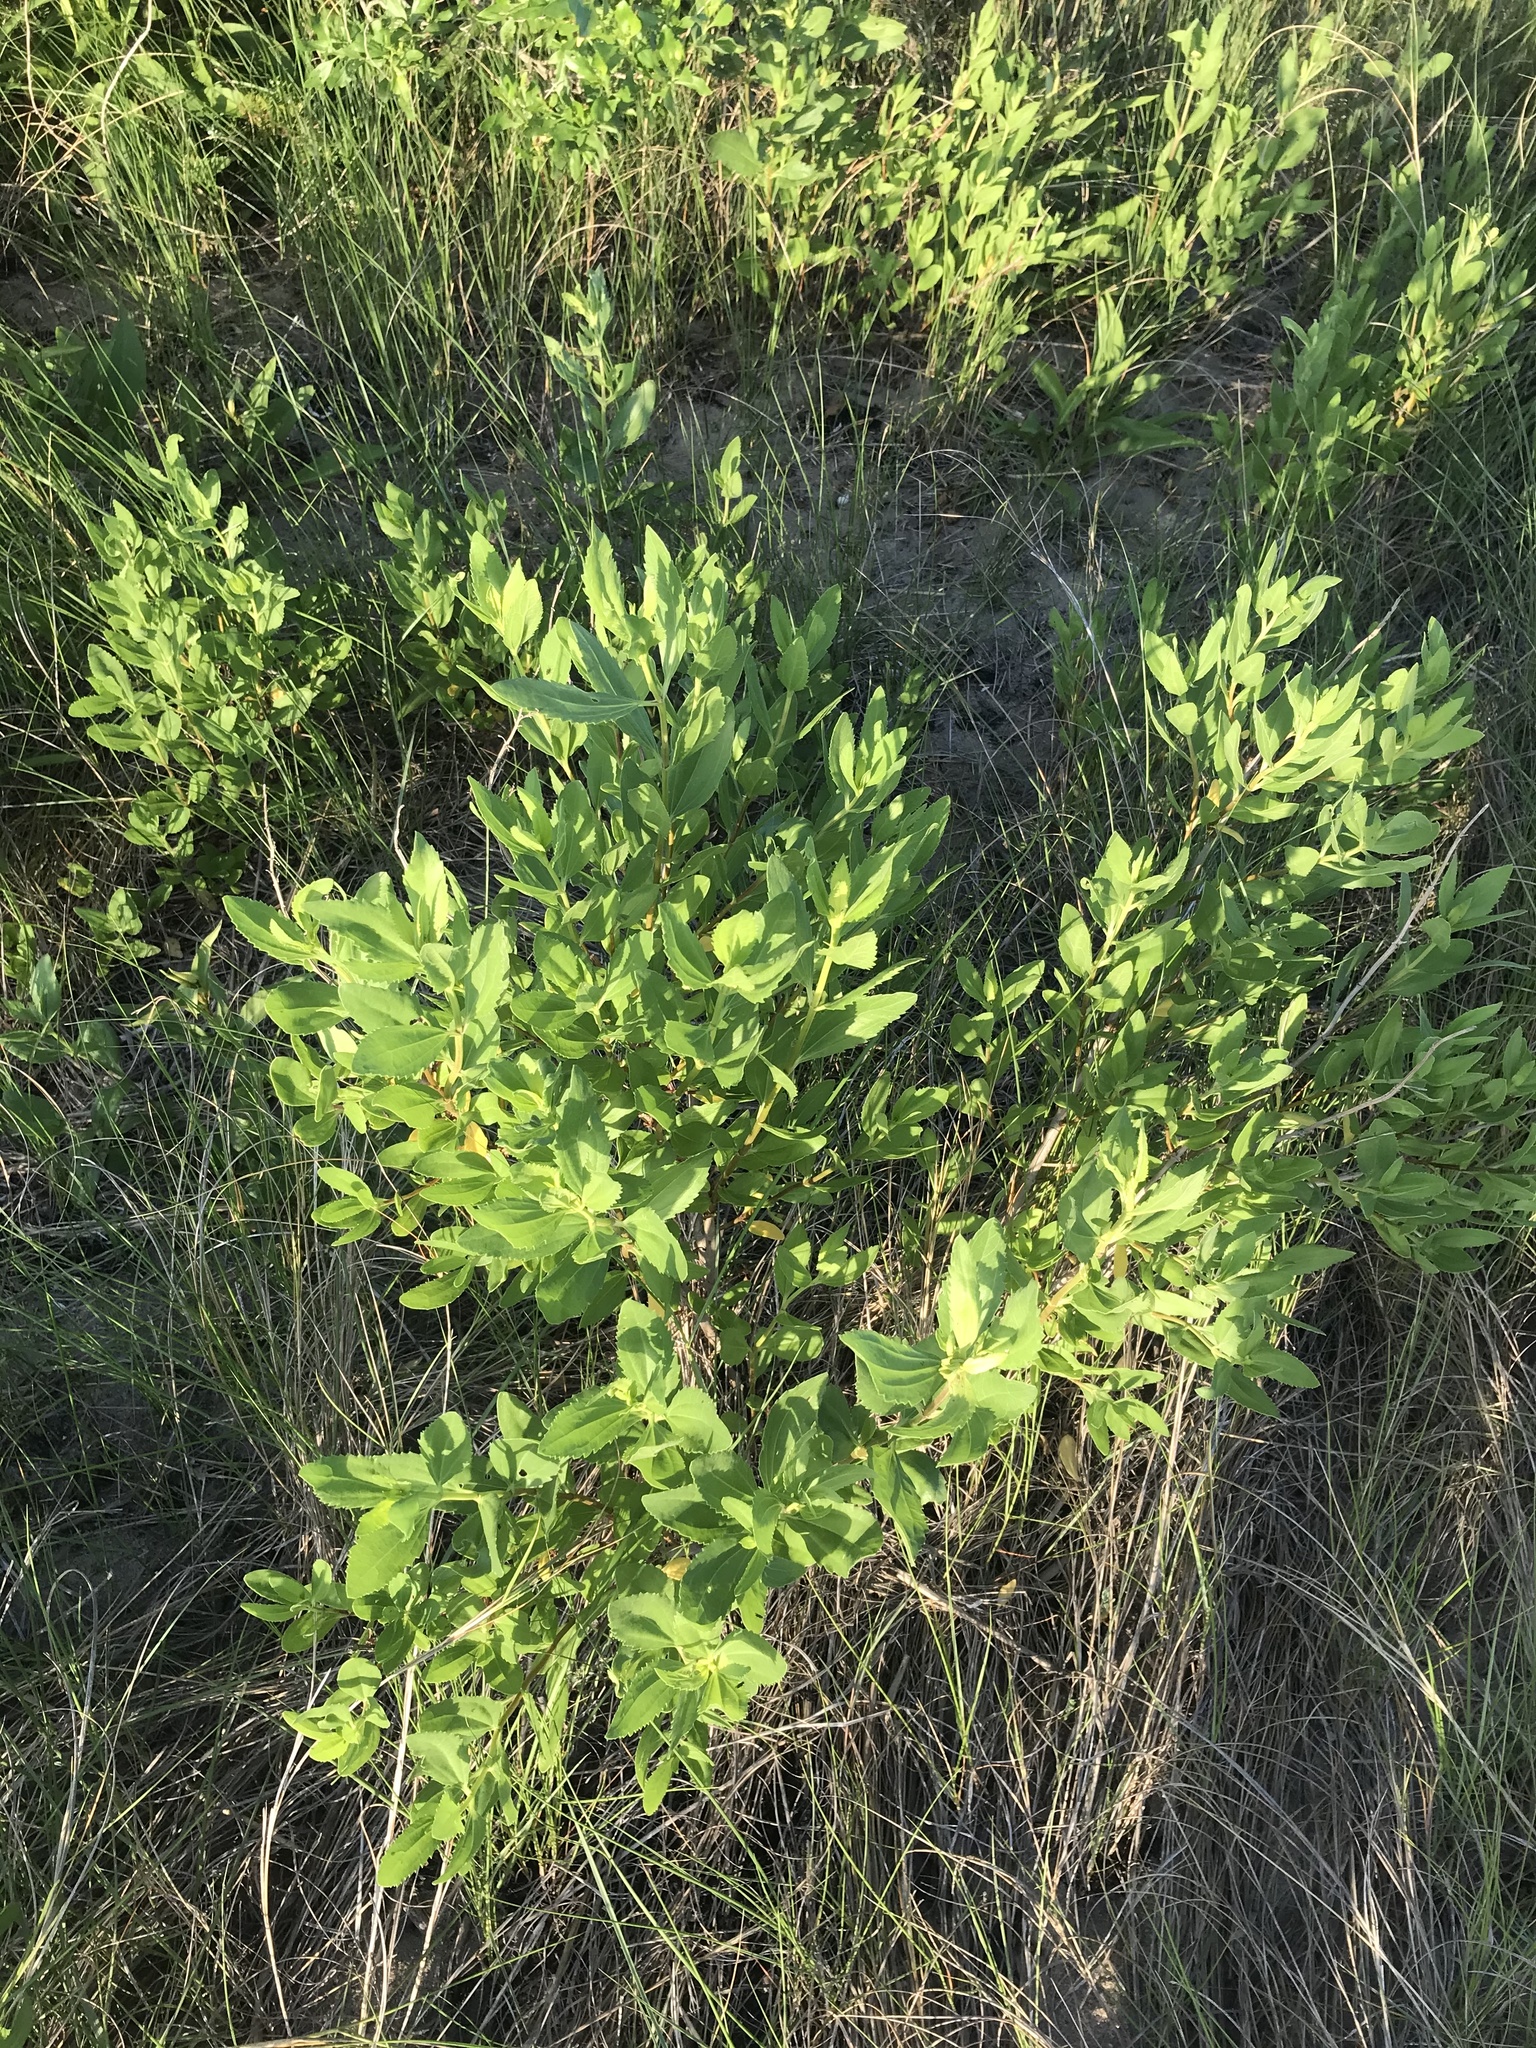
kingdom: Plantae
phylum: Tracheophyta
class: Magnoliopsida
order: Asterales
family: Asteraceae
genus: Iva
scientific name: Iva frutescens
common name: Big-leaved marsh-elder
